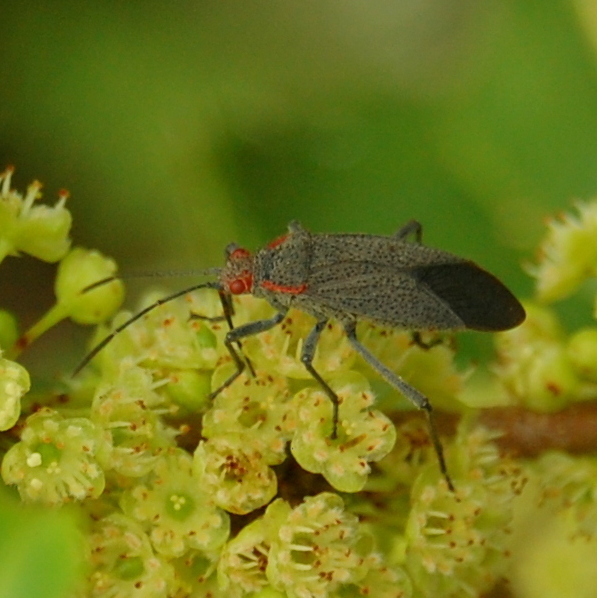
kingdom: Animalia
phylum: Arthropoda
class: Insecta
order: Hemiptera
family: Rhopalidae
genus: Jadera
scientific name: Jadera coturnix
